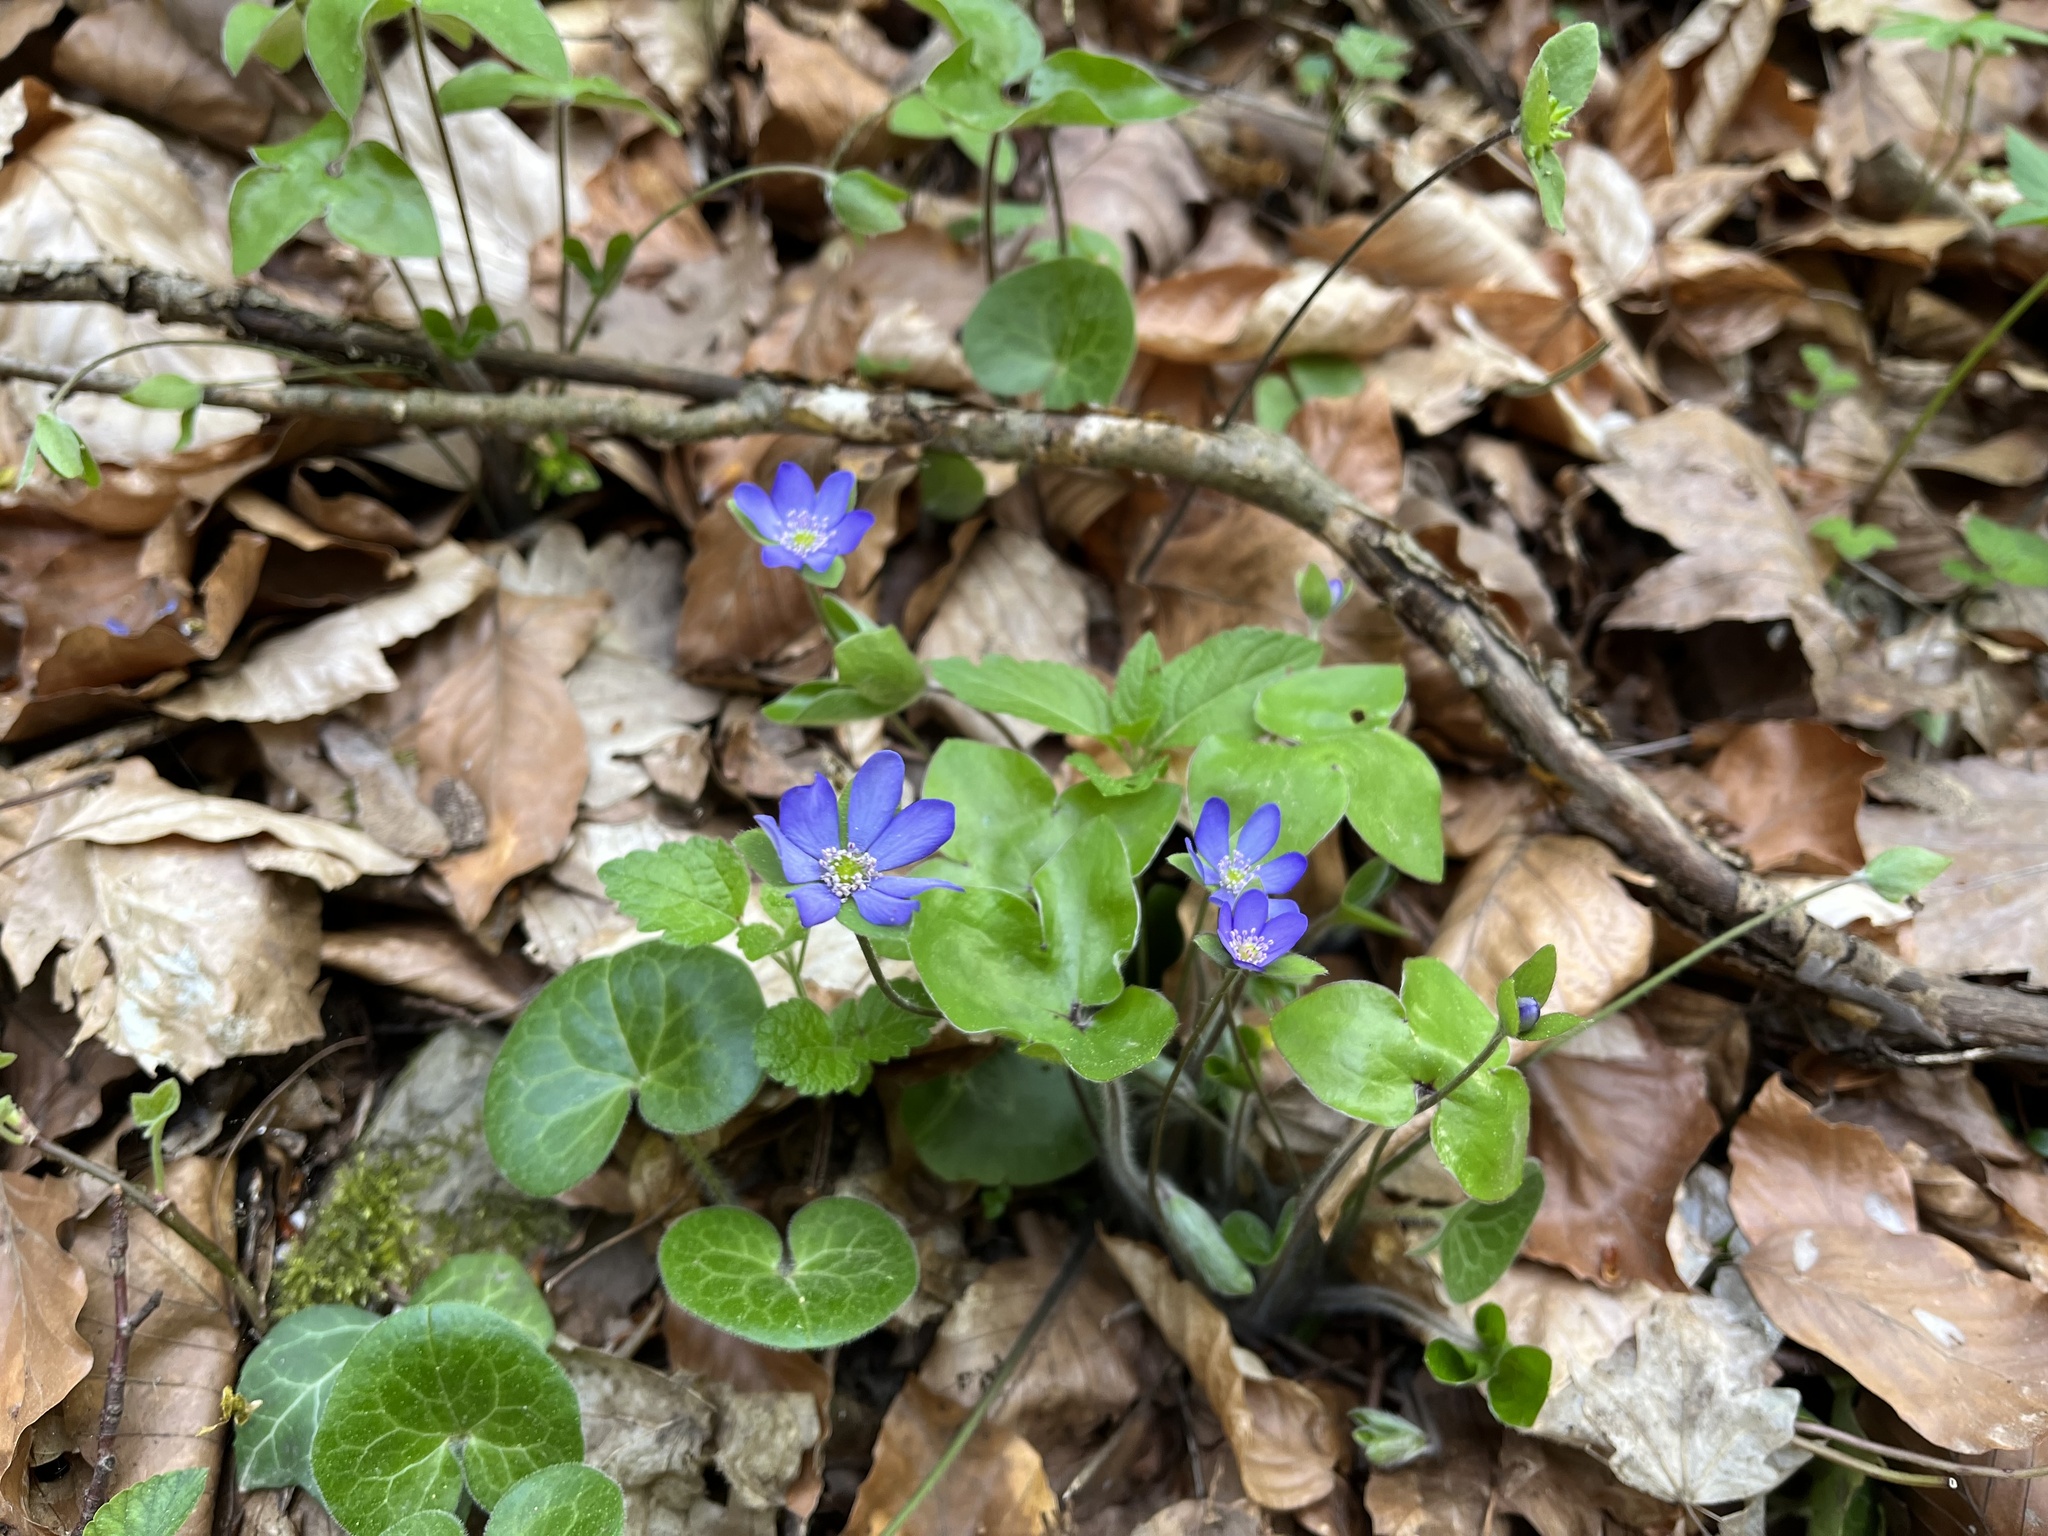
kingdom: Plantae
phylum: Tracheophyta
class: Magnoliopsida
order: Ranunculales
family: Ranunculaceae
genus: Hepatica
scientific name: Hepatica nobilis
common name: Liverleaf
